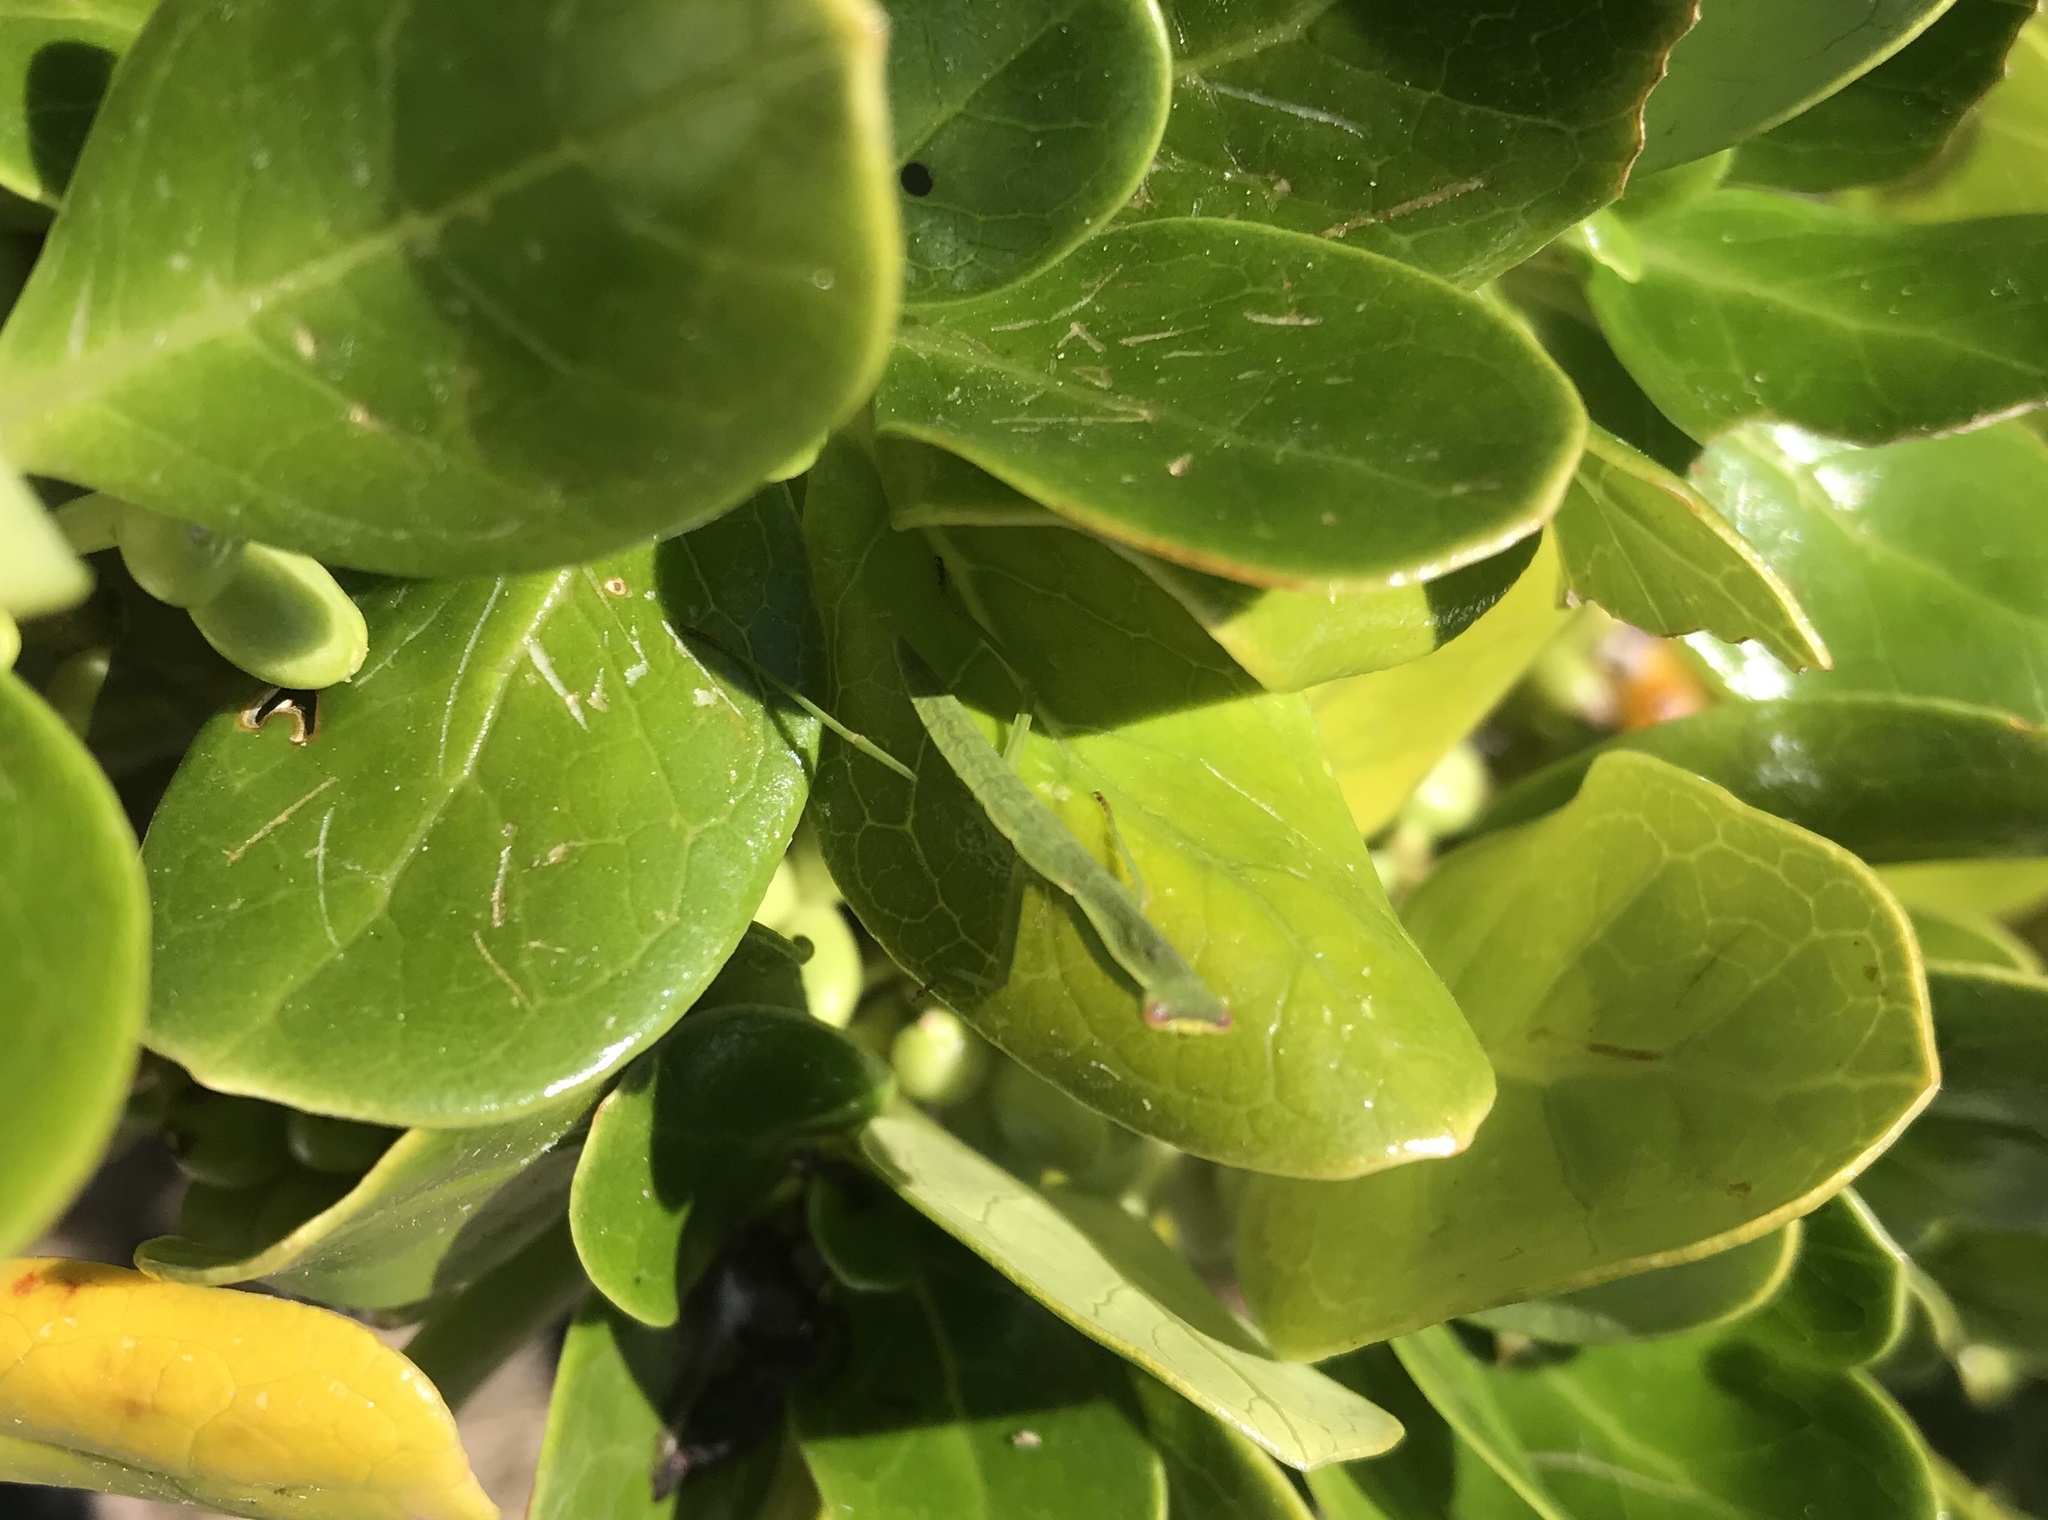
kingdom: Animalia
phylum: Arthropoda
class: Insecta
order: Mantodea
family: Mantidae
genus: Orthodera
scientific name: Orthodera novaezealandiae
